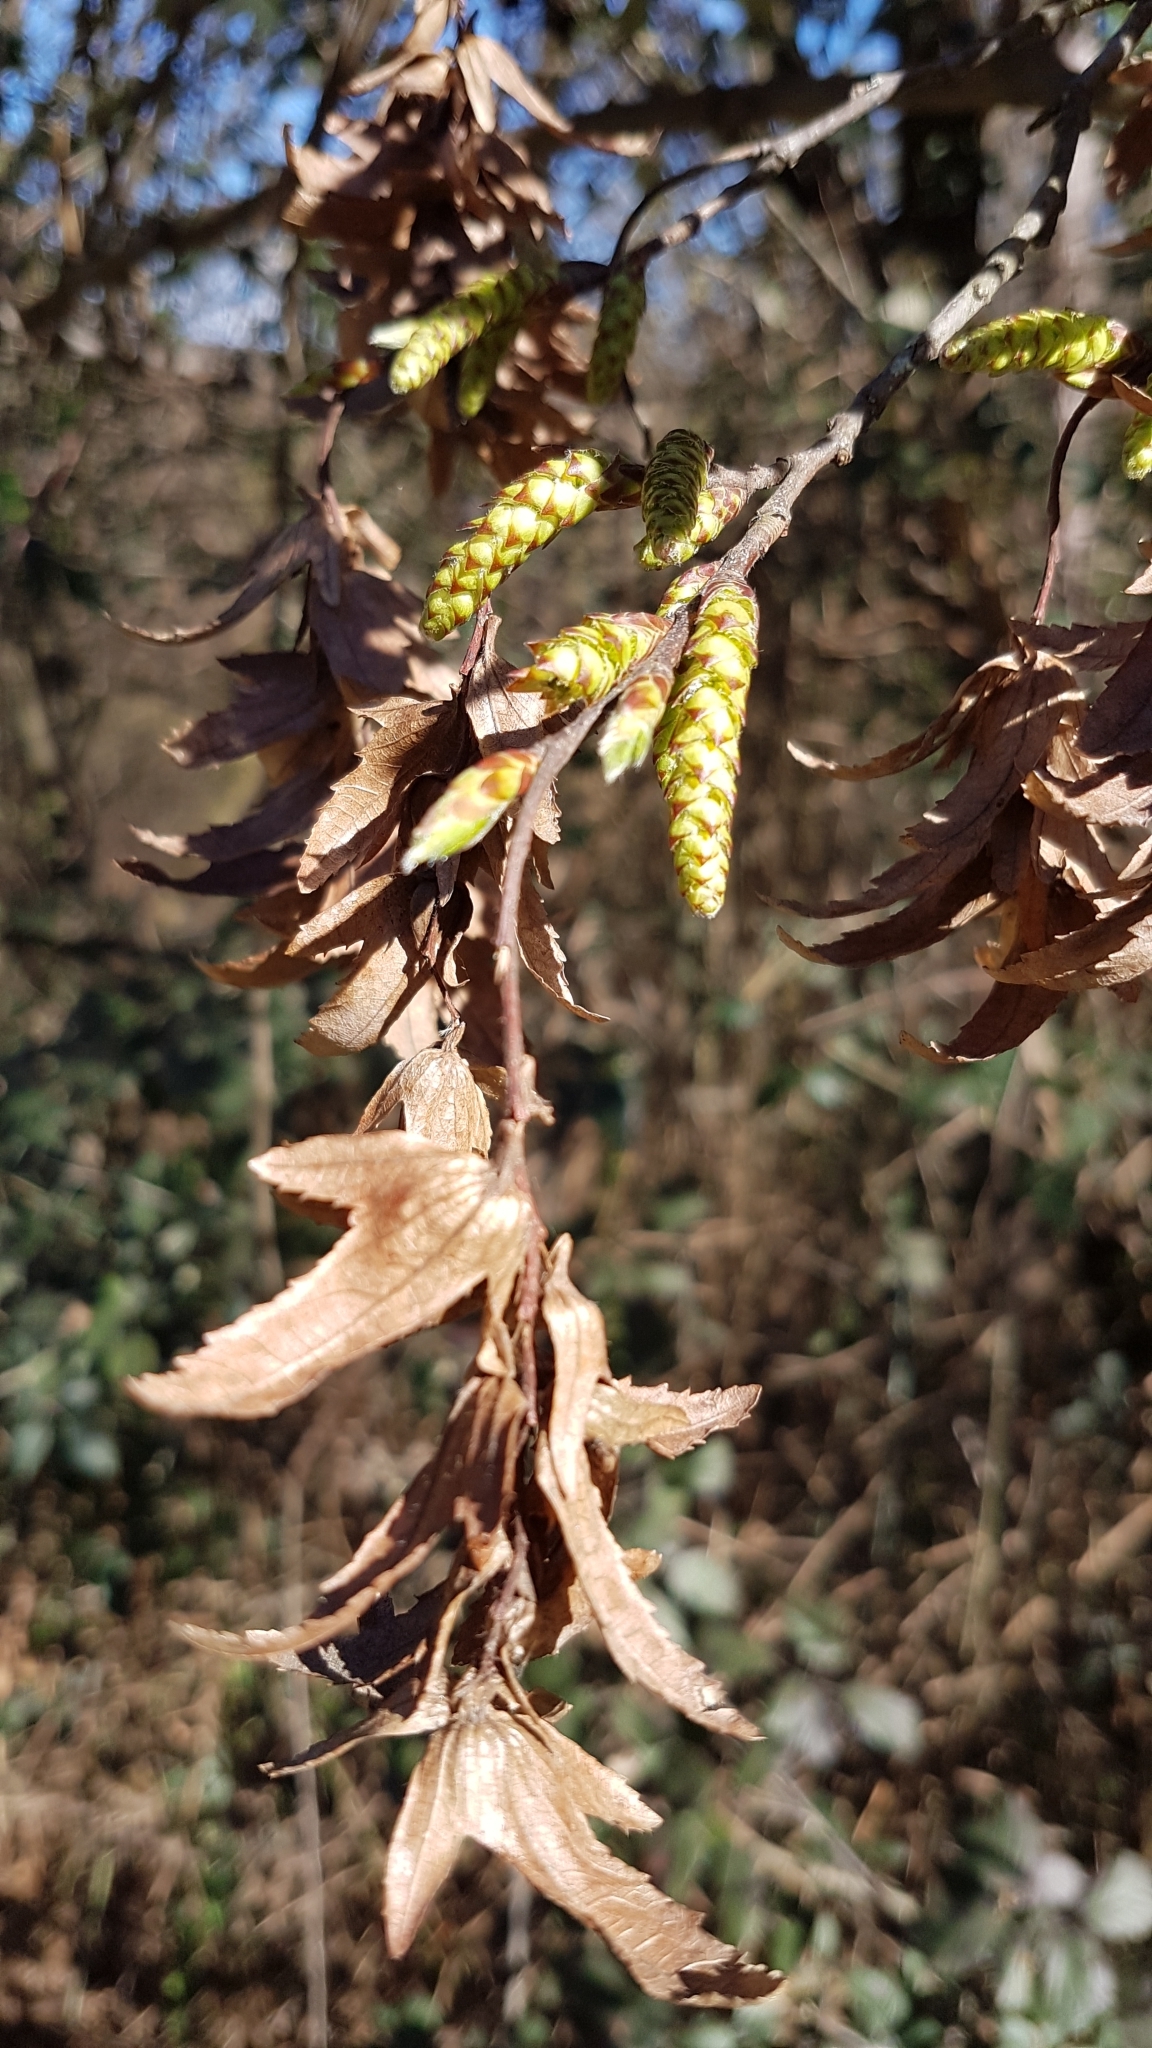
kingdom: Plantae
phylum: Tracheophyta
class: Magnoliopsida
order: Fagales
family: Betulaceae
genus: Carpinus
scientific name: Carpinus betulus
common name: Hornbeam
